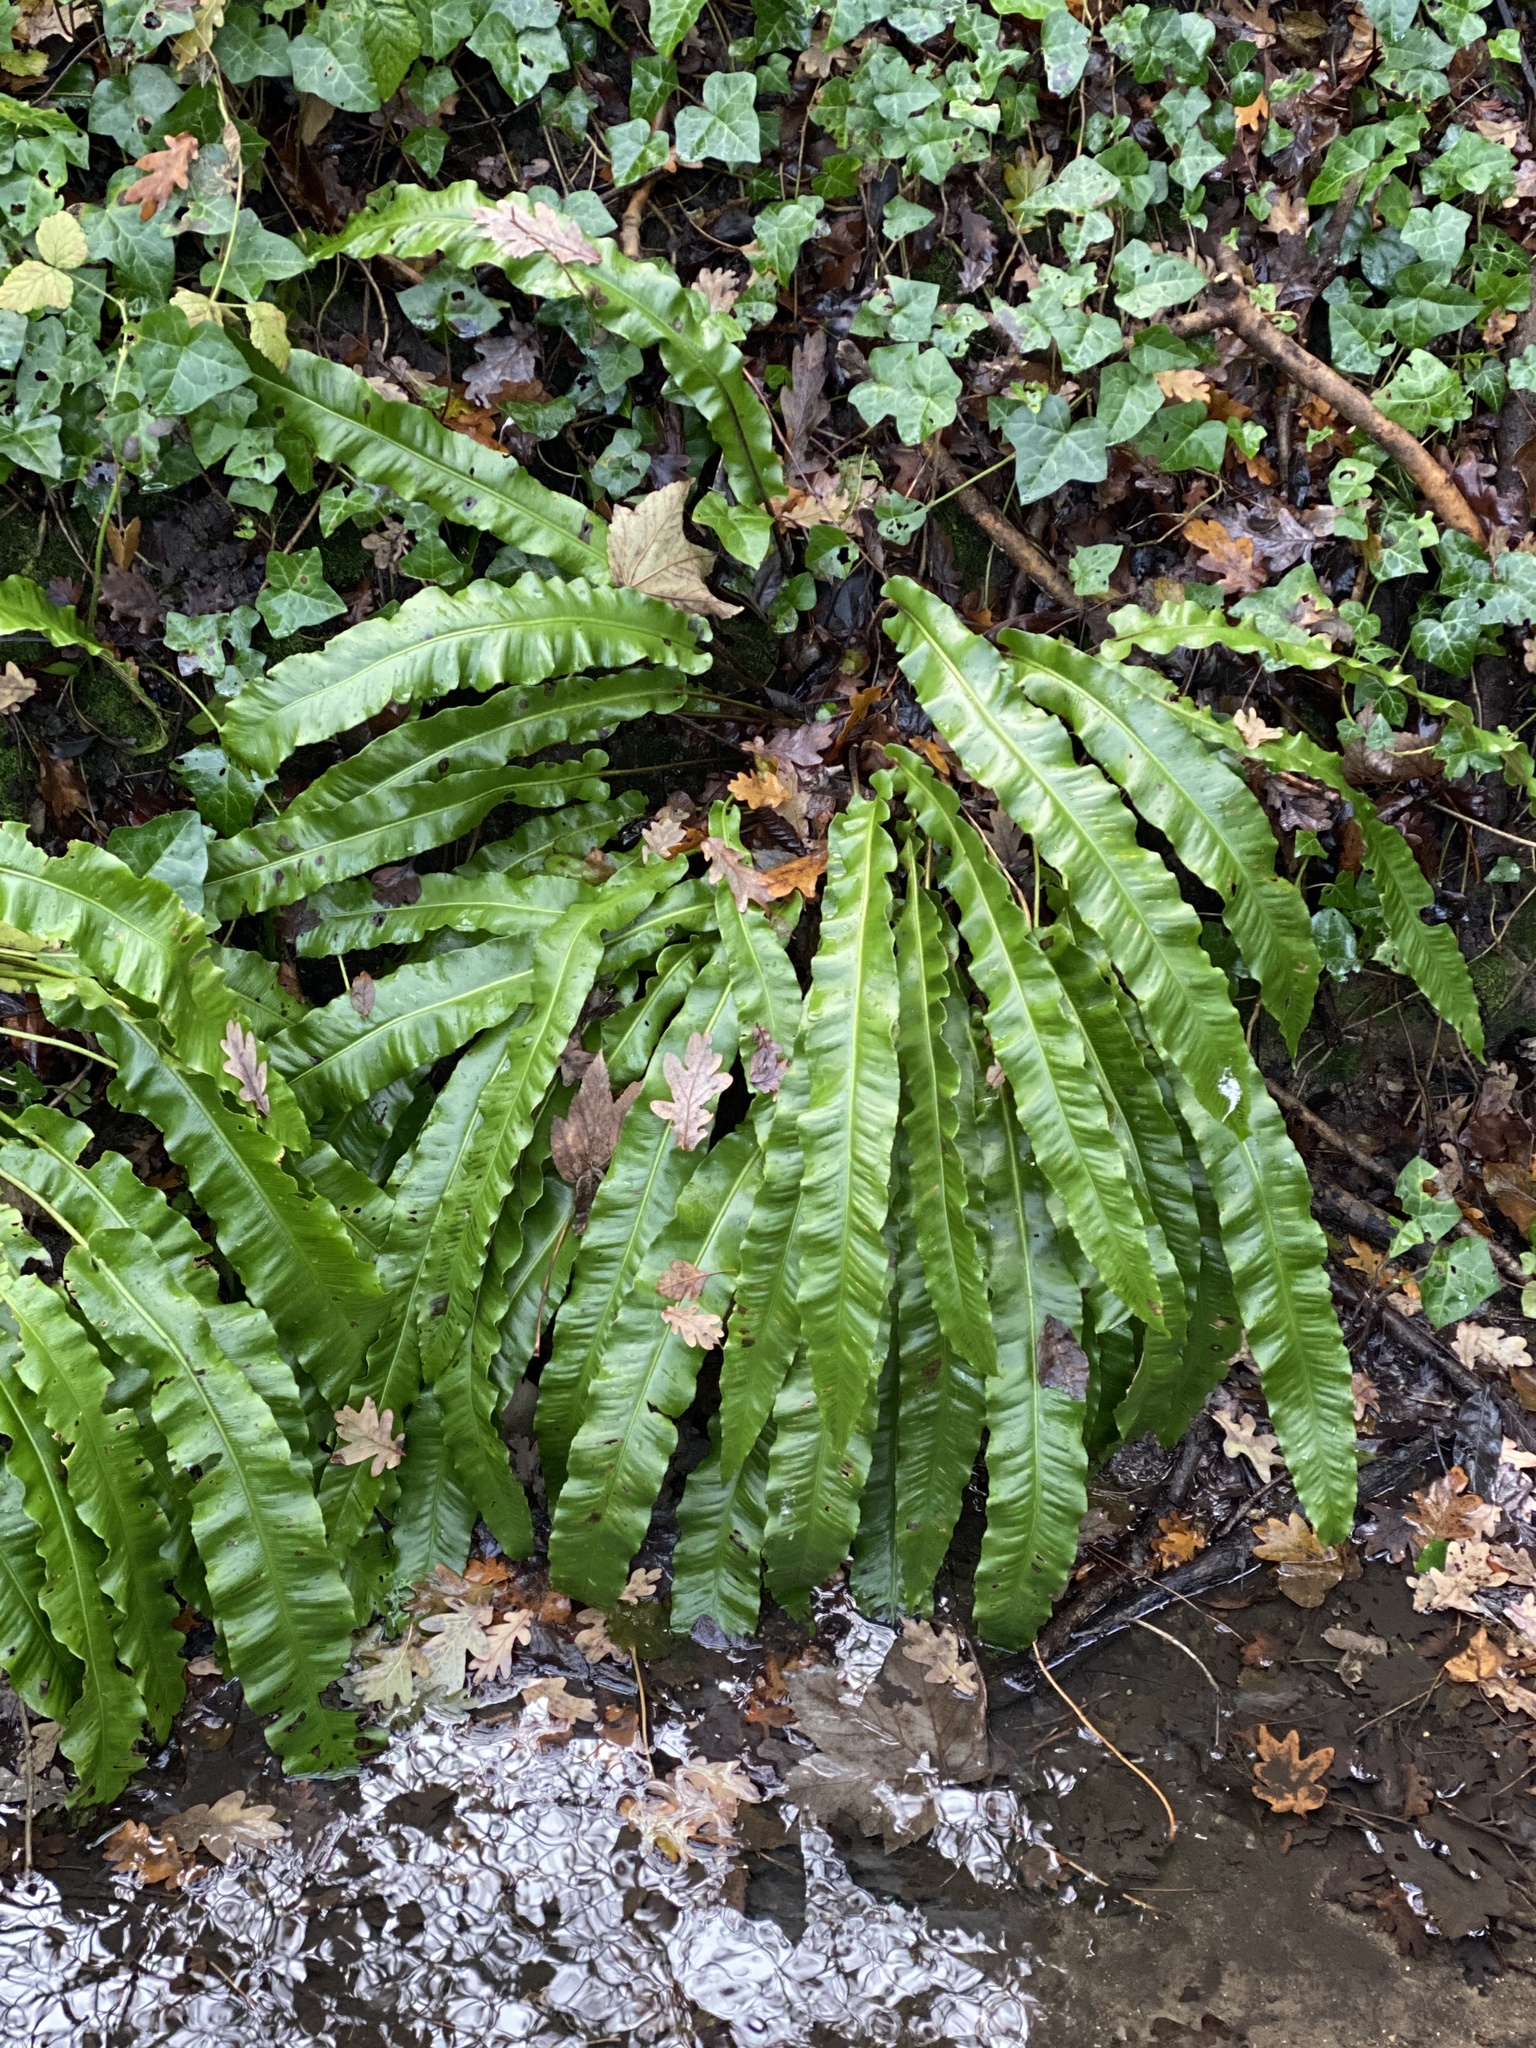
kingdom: Plantae
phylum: Tracheophyta
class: Polypodiopsida
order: Polypodiales
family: Aspleniaceae
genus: Asplenium
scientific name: Asplenium scolopendrium
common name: Hart's-tongue fern
